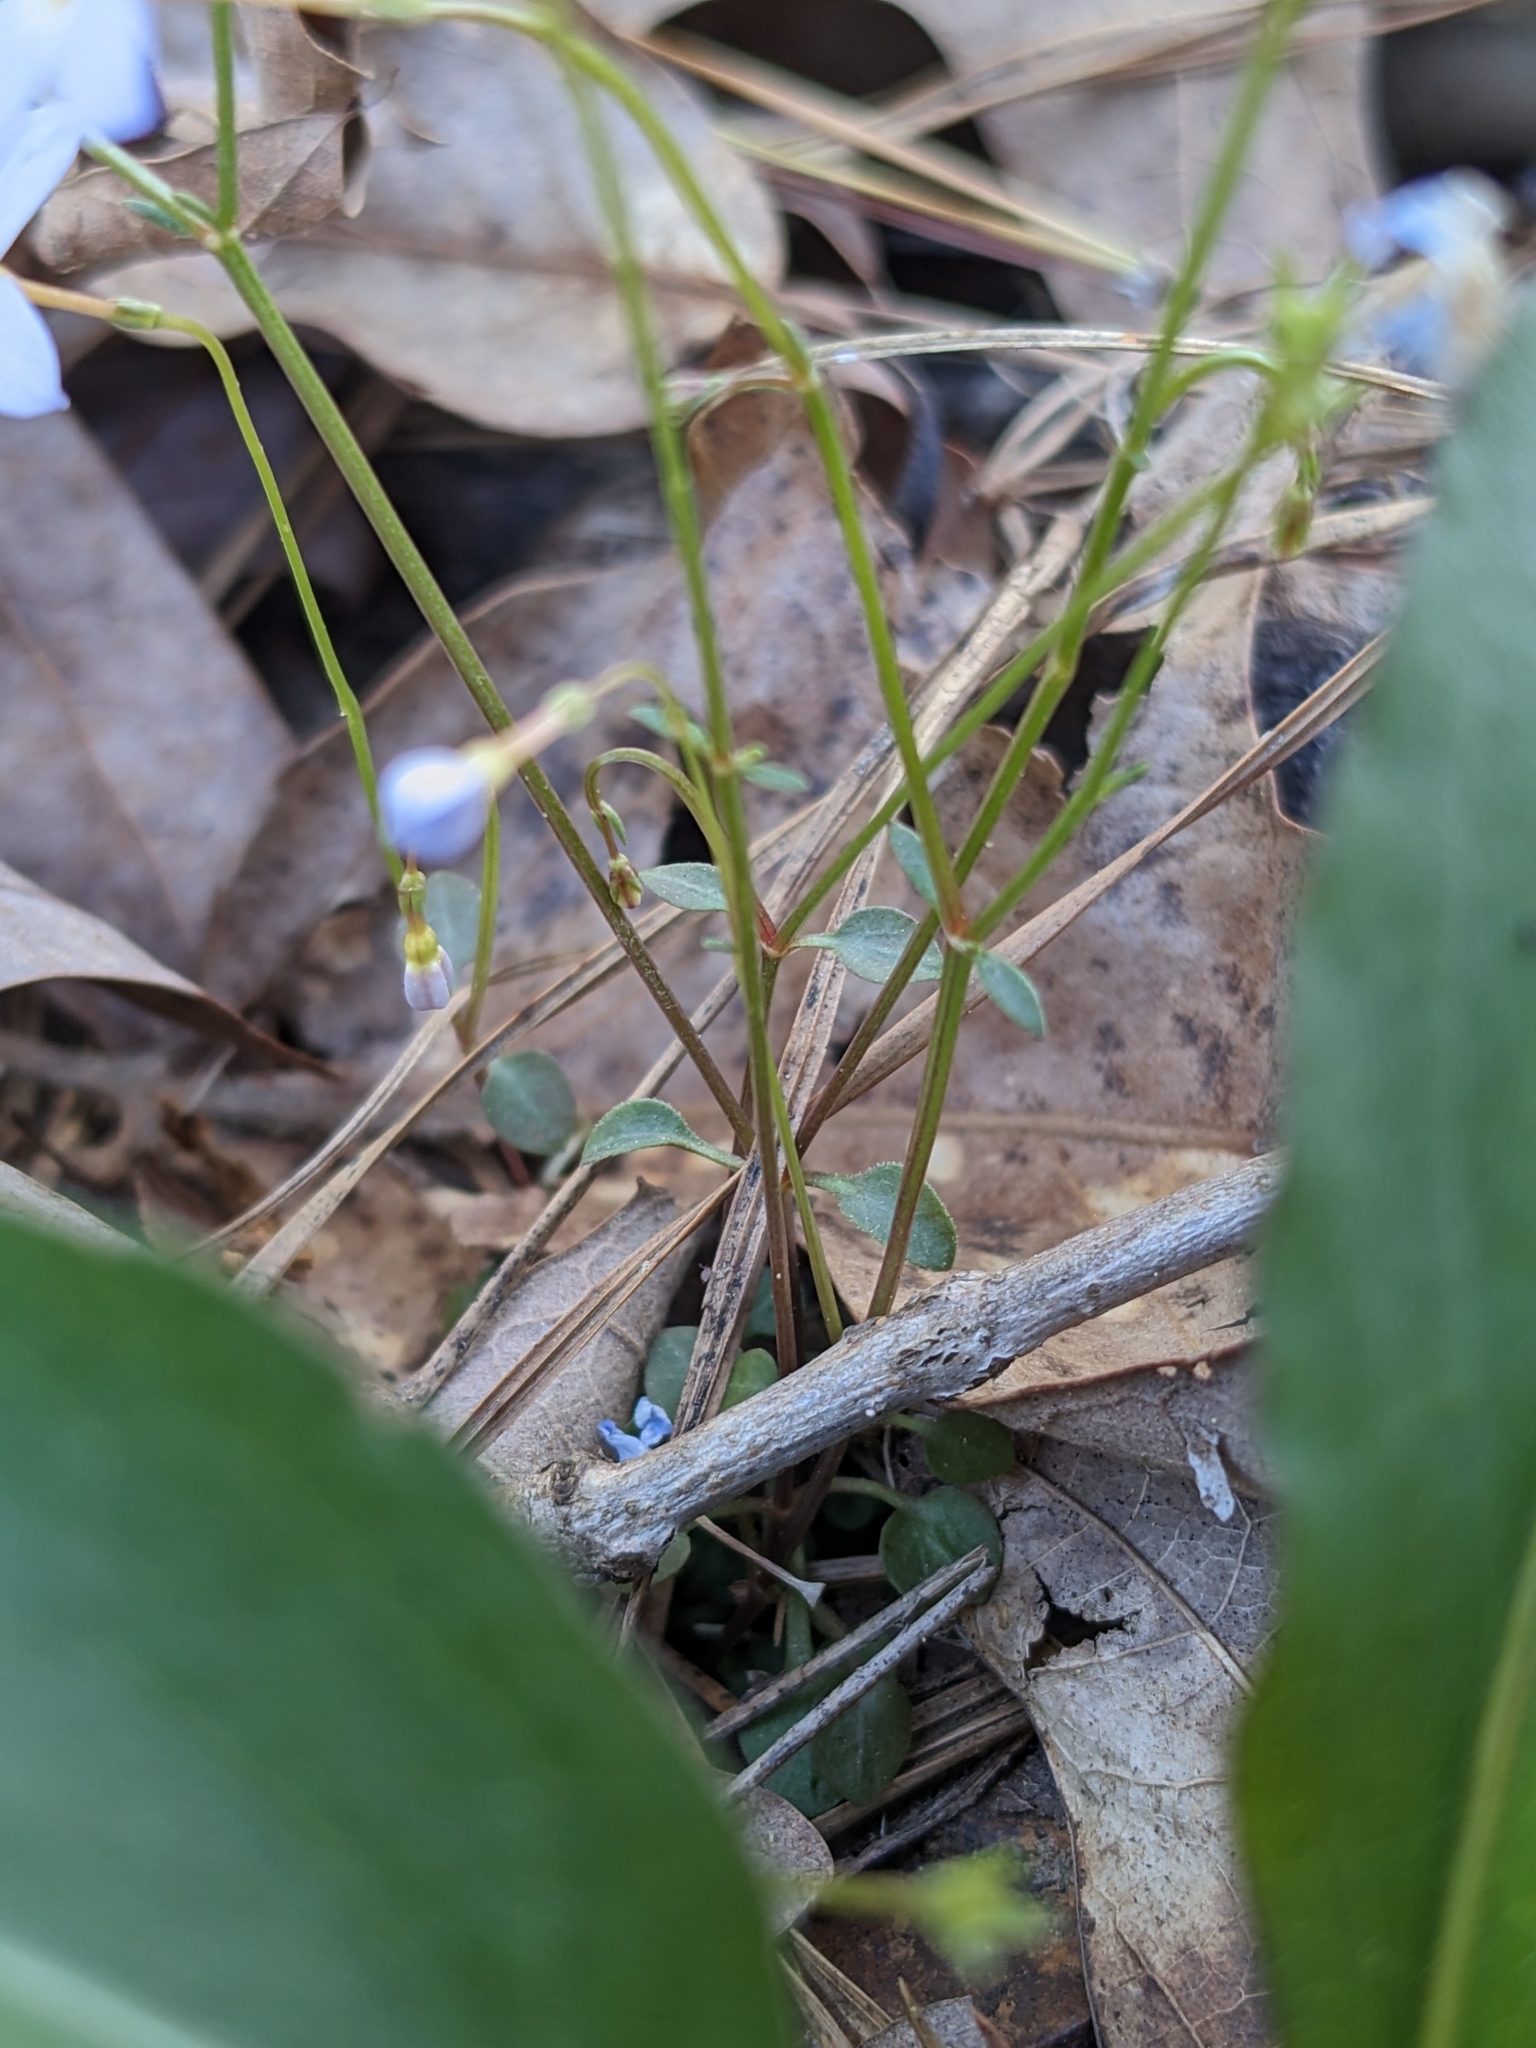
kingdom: Plantae
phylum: Tracheophyta
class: Magnoliopsida
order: Gentianales
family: Rubiaceae
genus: Houstonia
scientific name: Houstonia caerulea
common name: Bluets
